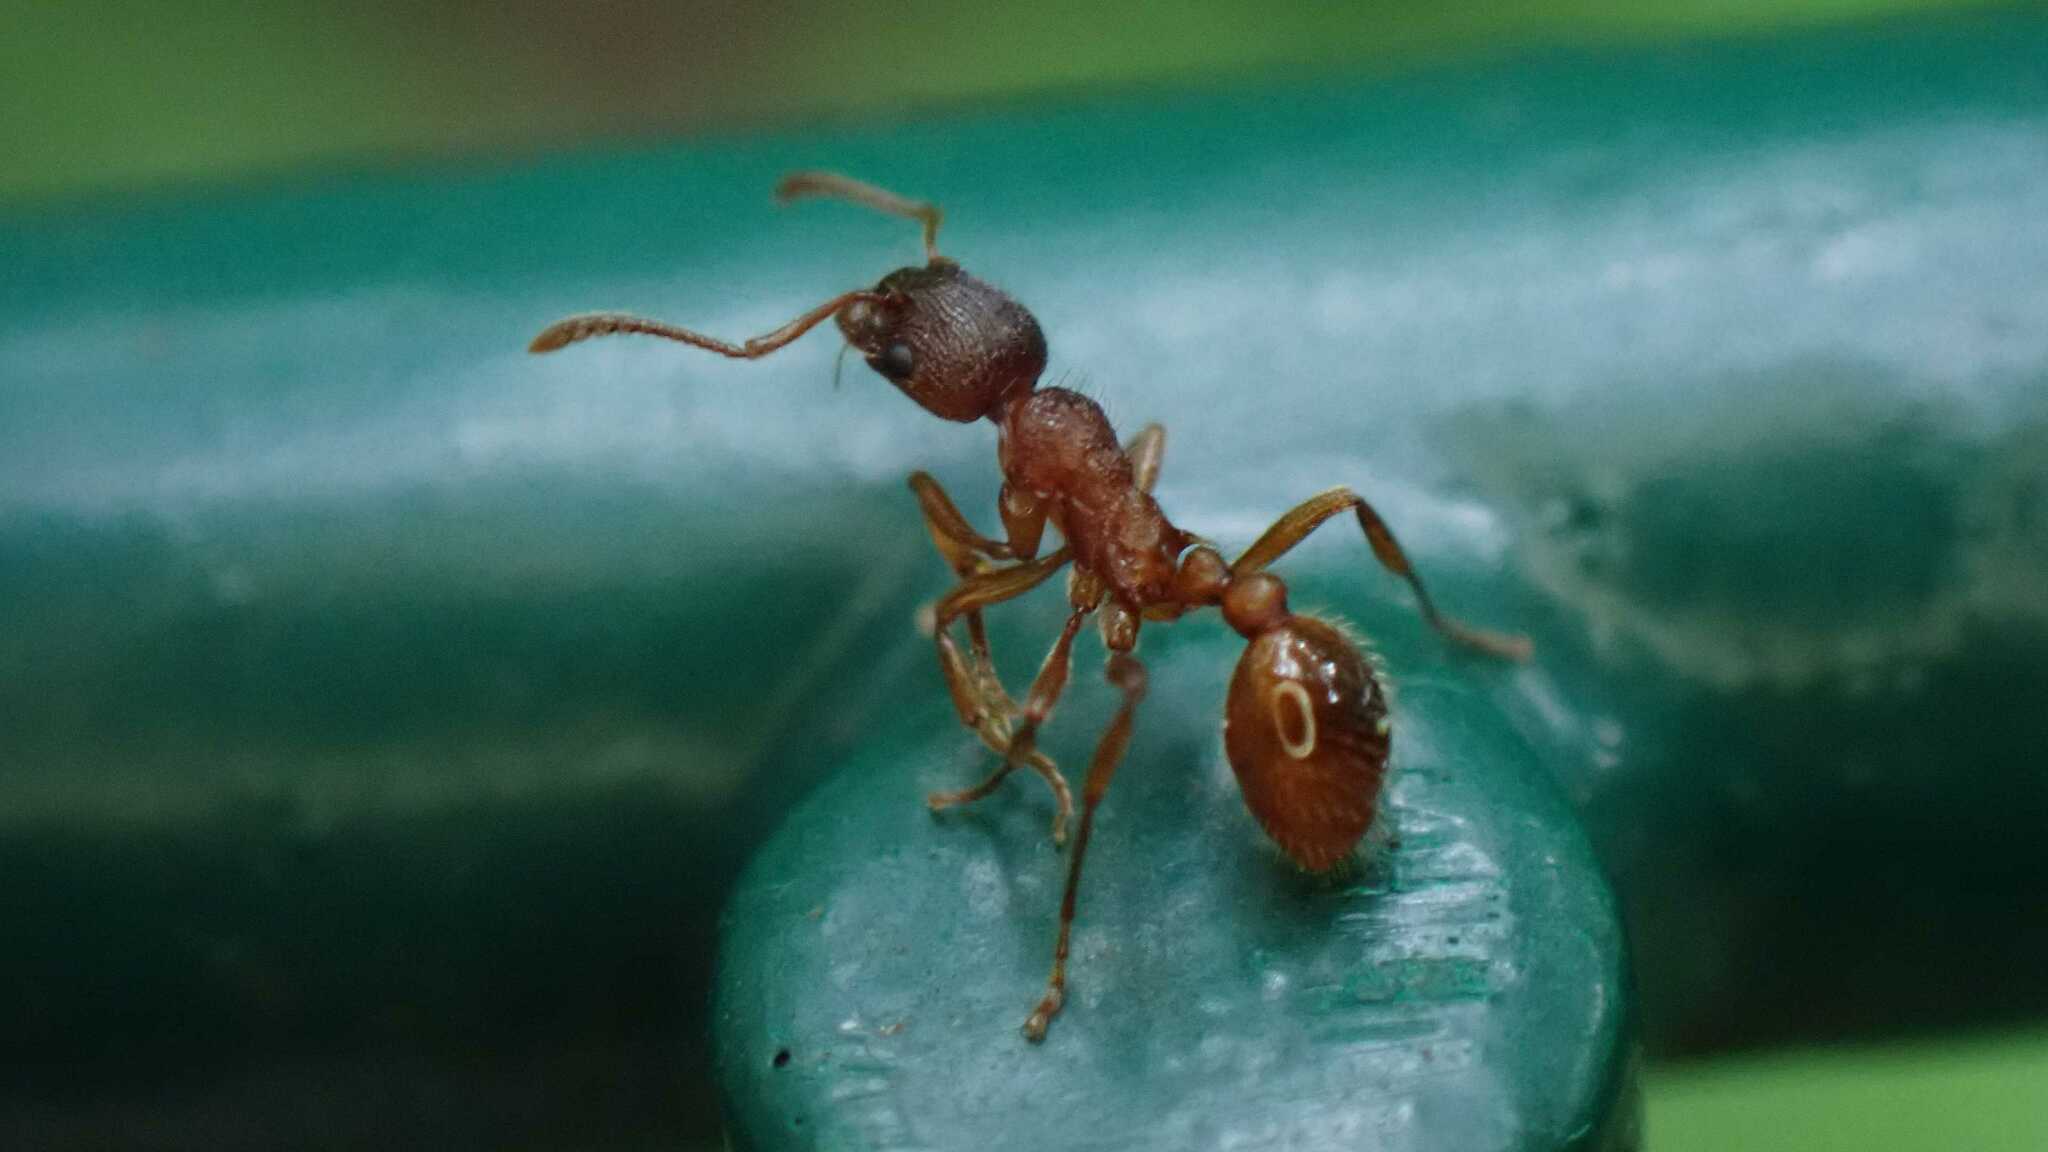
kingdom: Animalia
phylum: Arthropoda
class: Insecta
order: Hymenoptera
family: Formicidae
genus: Myrmica
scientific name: Myrmica rubra
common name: European fire ant
